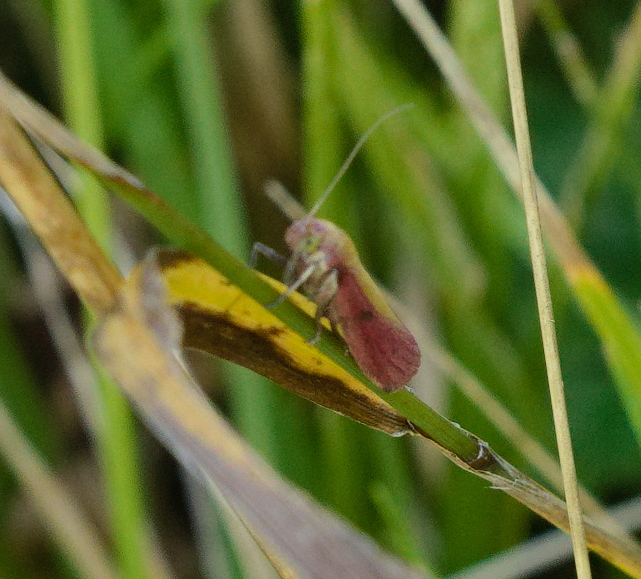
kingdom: Animalia
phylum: Arthropoda
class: Insecta
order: Lepidoptera
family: Pyralidae
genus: Oncocera
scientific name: Oncocera semirubella
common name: Rosy-striped knot-horn
